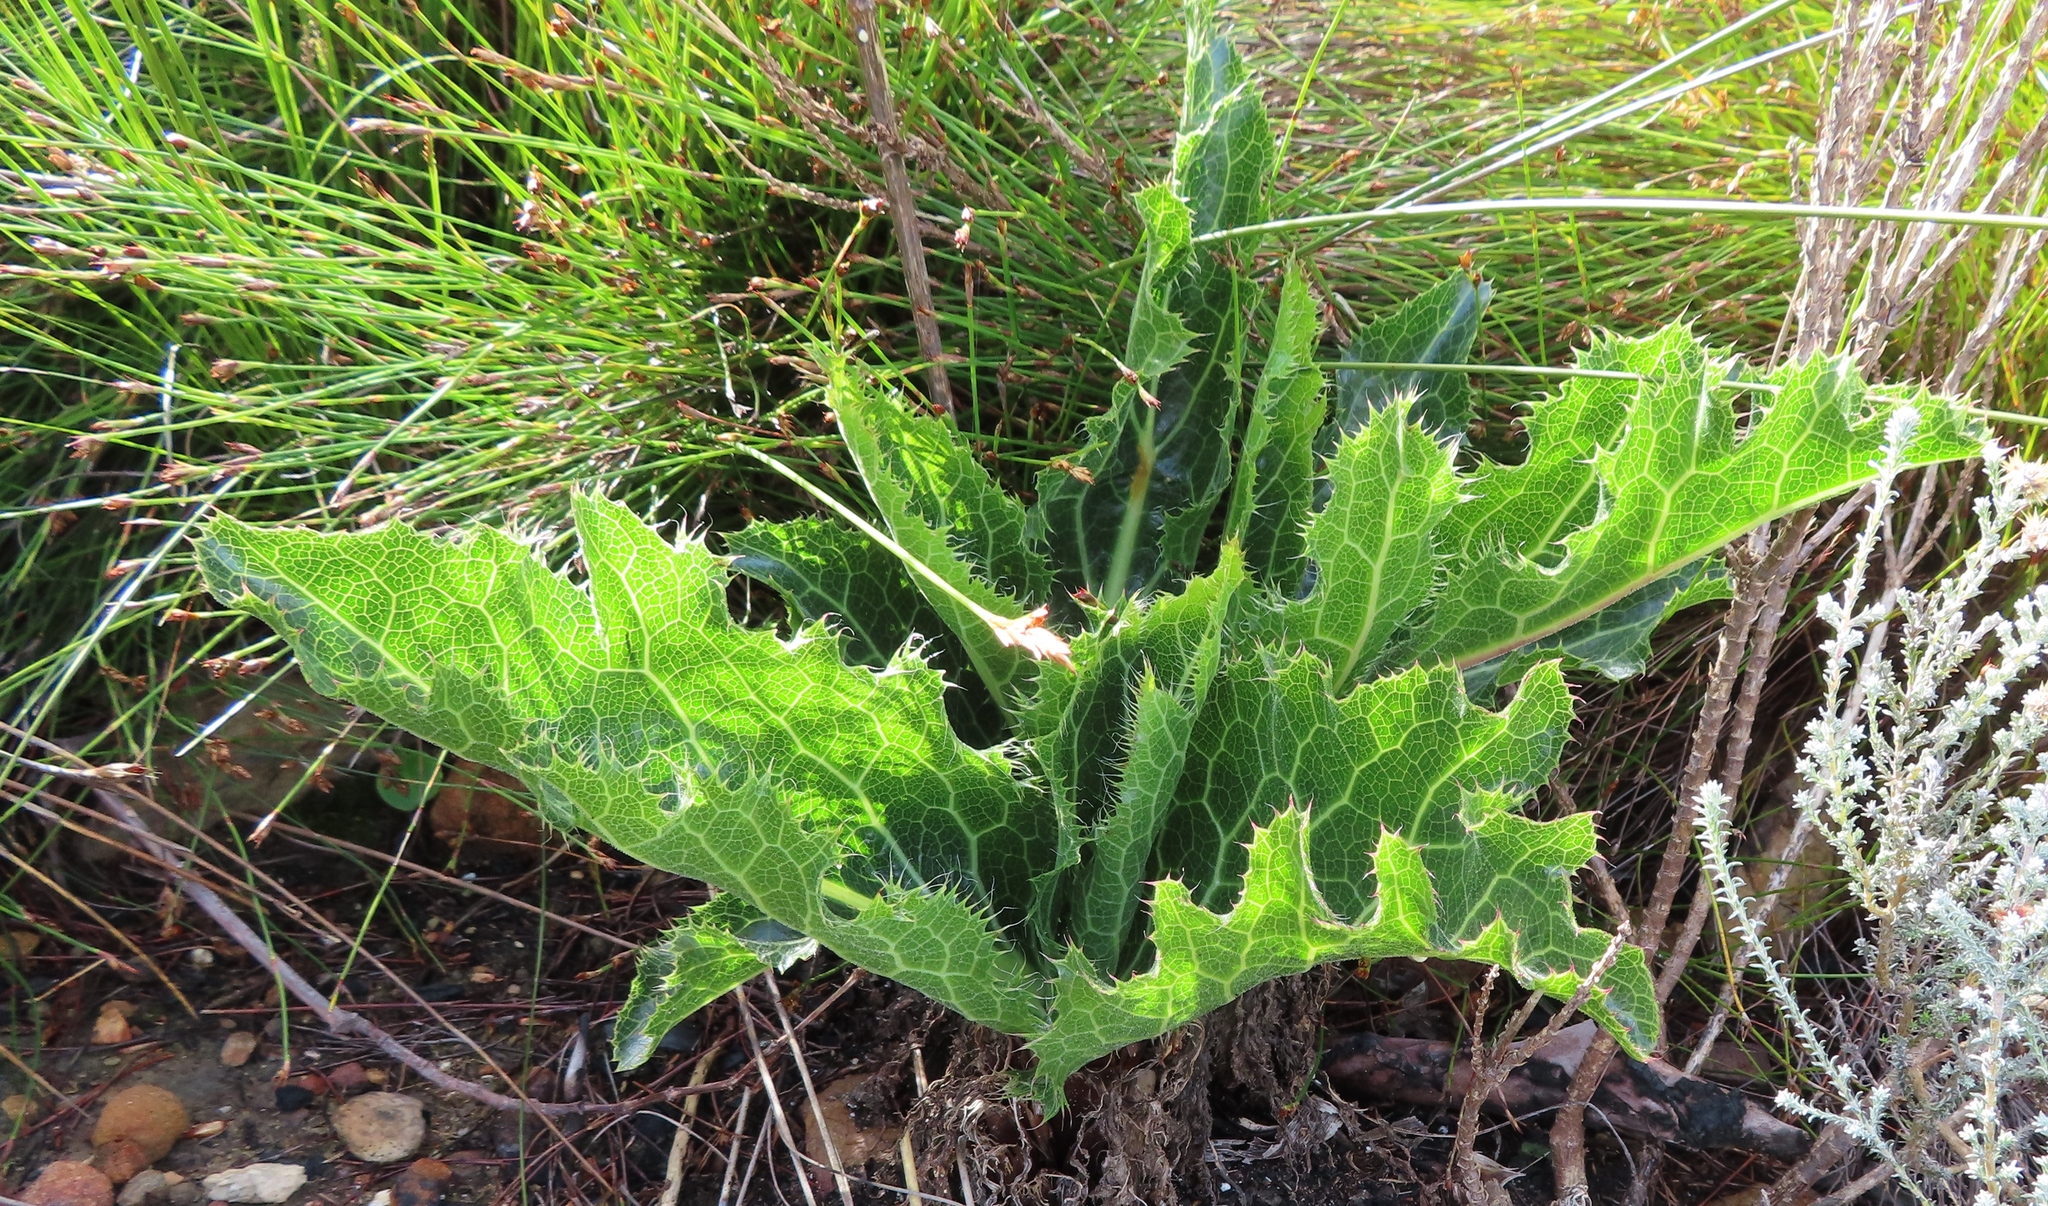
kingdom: Plantae
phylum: Tracheophyta
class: Magnoliopsida
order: Apiales
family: Apiaceae
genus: Lichtensteinia
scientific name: Lichtensteinia lacera
